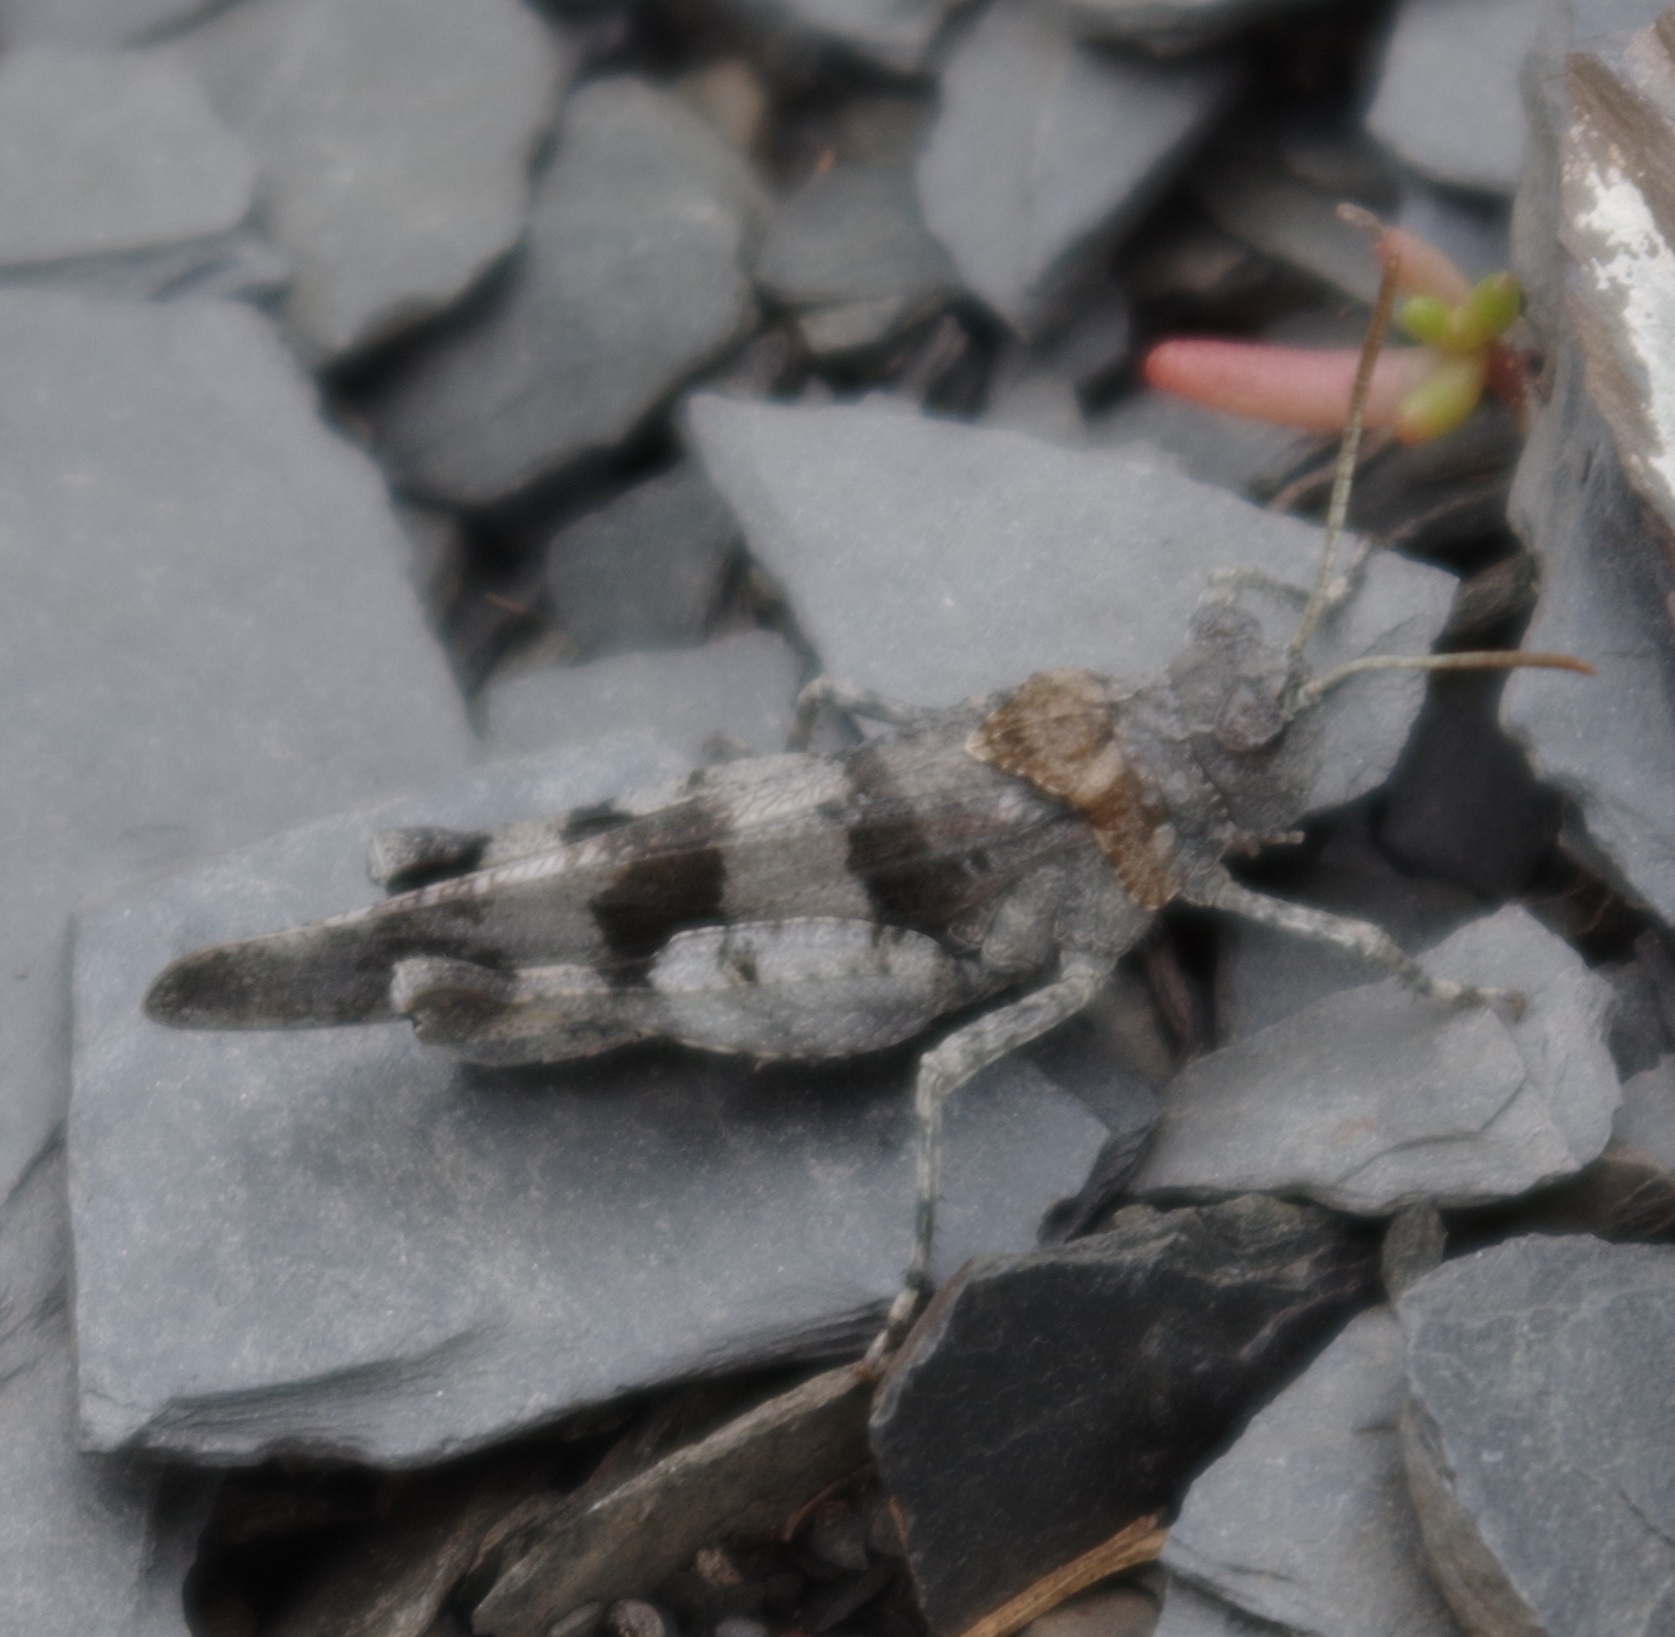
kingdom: Animalia
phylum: Arthropoda
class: Insecta
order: Orthoptera
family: Acrididae
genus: Oedipoda
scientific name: Oedipoda caerulescens
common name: Blue-winged grasshopper
